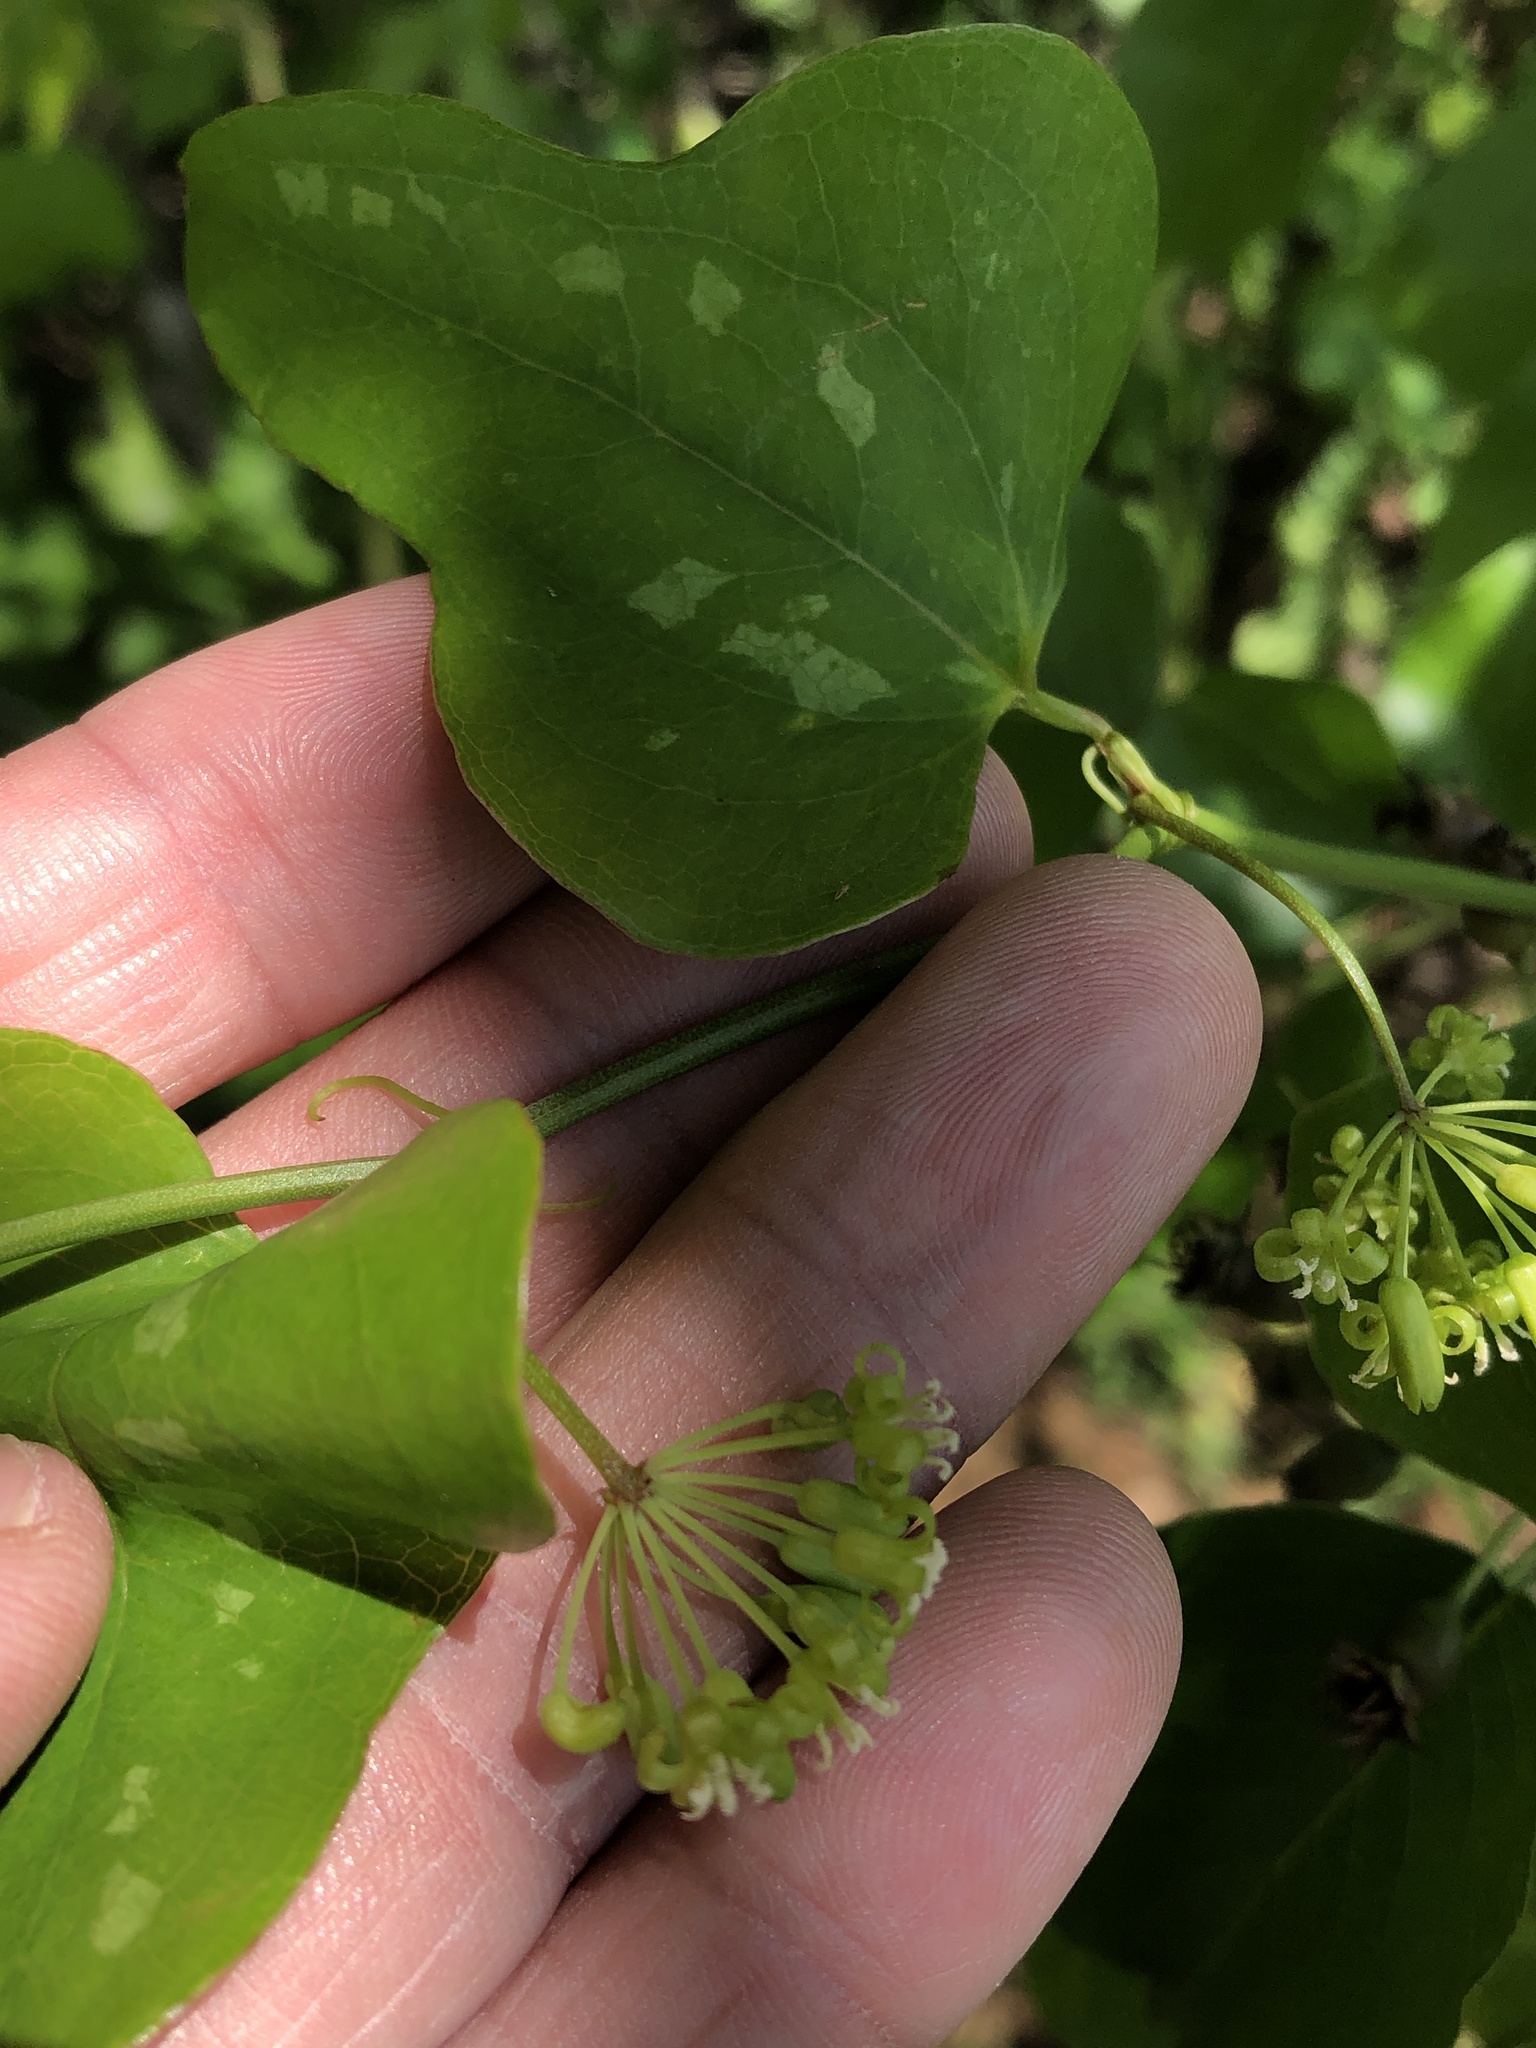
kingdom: Plantae
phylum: Tracheophyta
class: Liliopsida
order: Liliales
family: Smilacaceae
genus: Smilax
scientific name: Smilax bona-nox
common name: Catbrier
